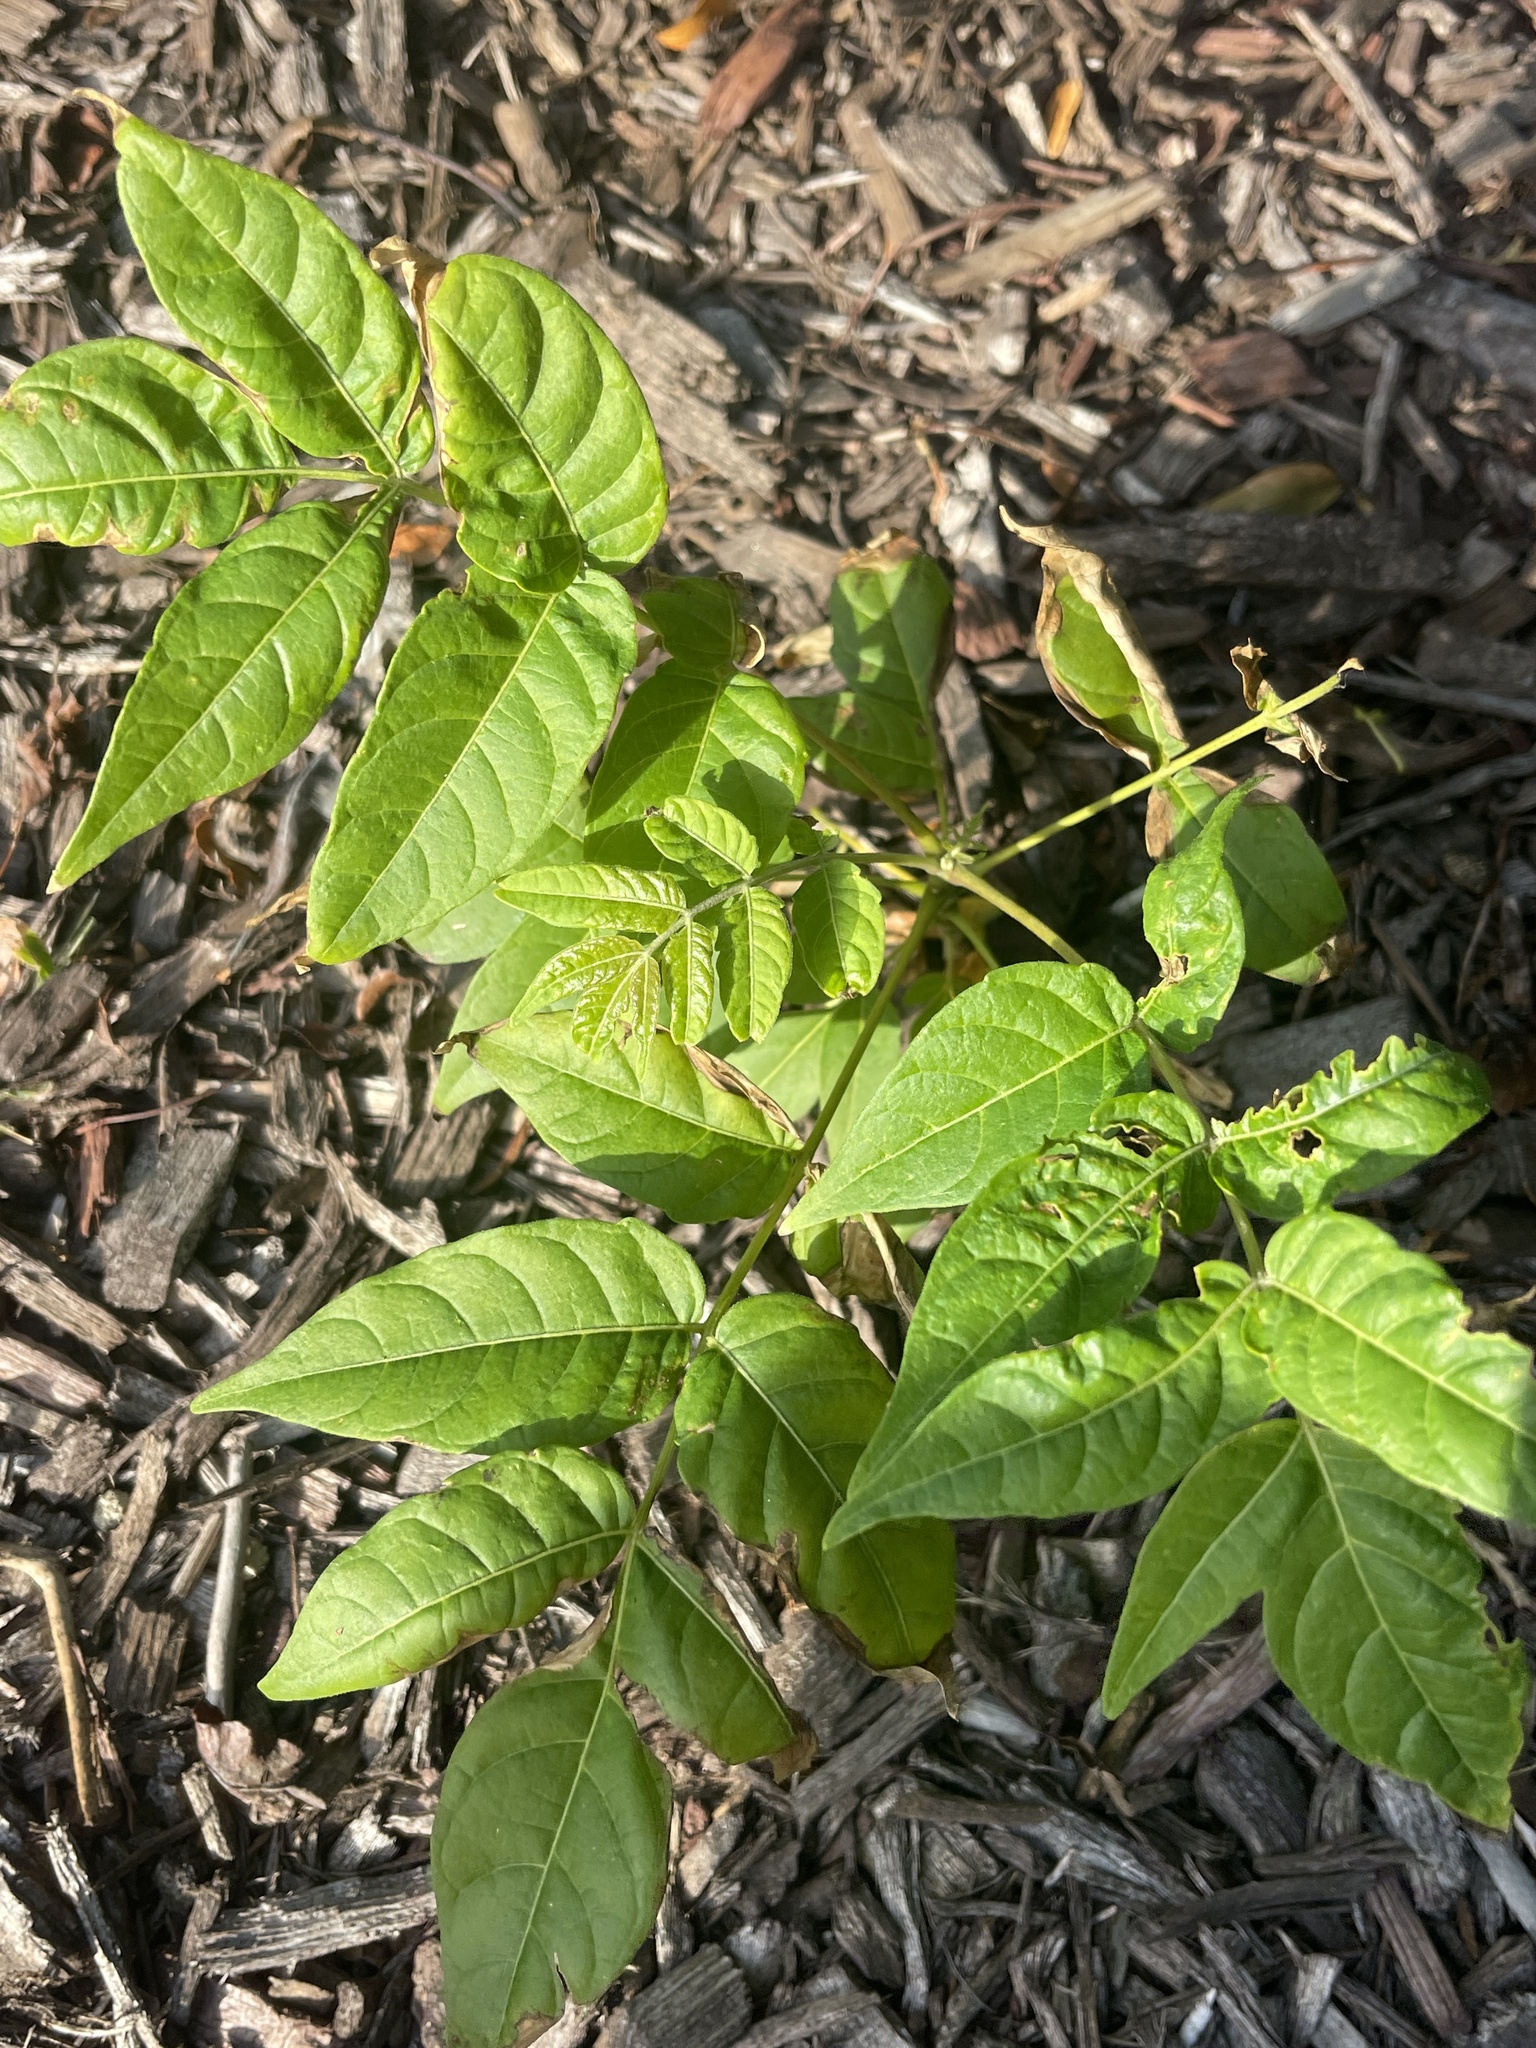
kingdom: Plantae
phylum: Tracheophyta
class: Magnoliopsida
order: Sapindales
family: Simaroubaceae
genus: Ailanthus
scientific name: Ailanthus altissima
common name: Tree-of-heaven
